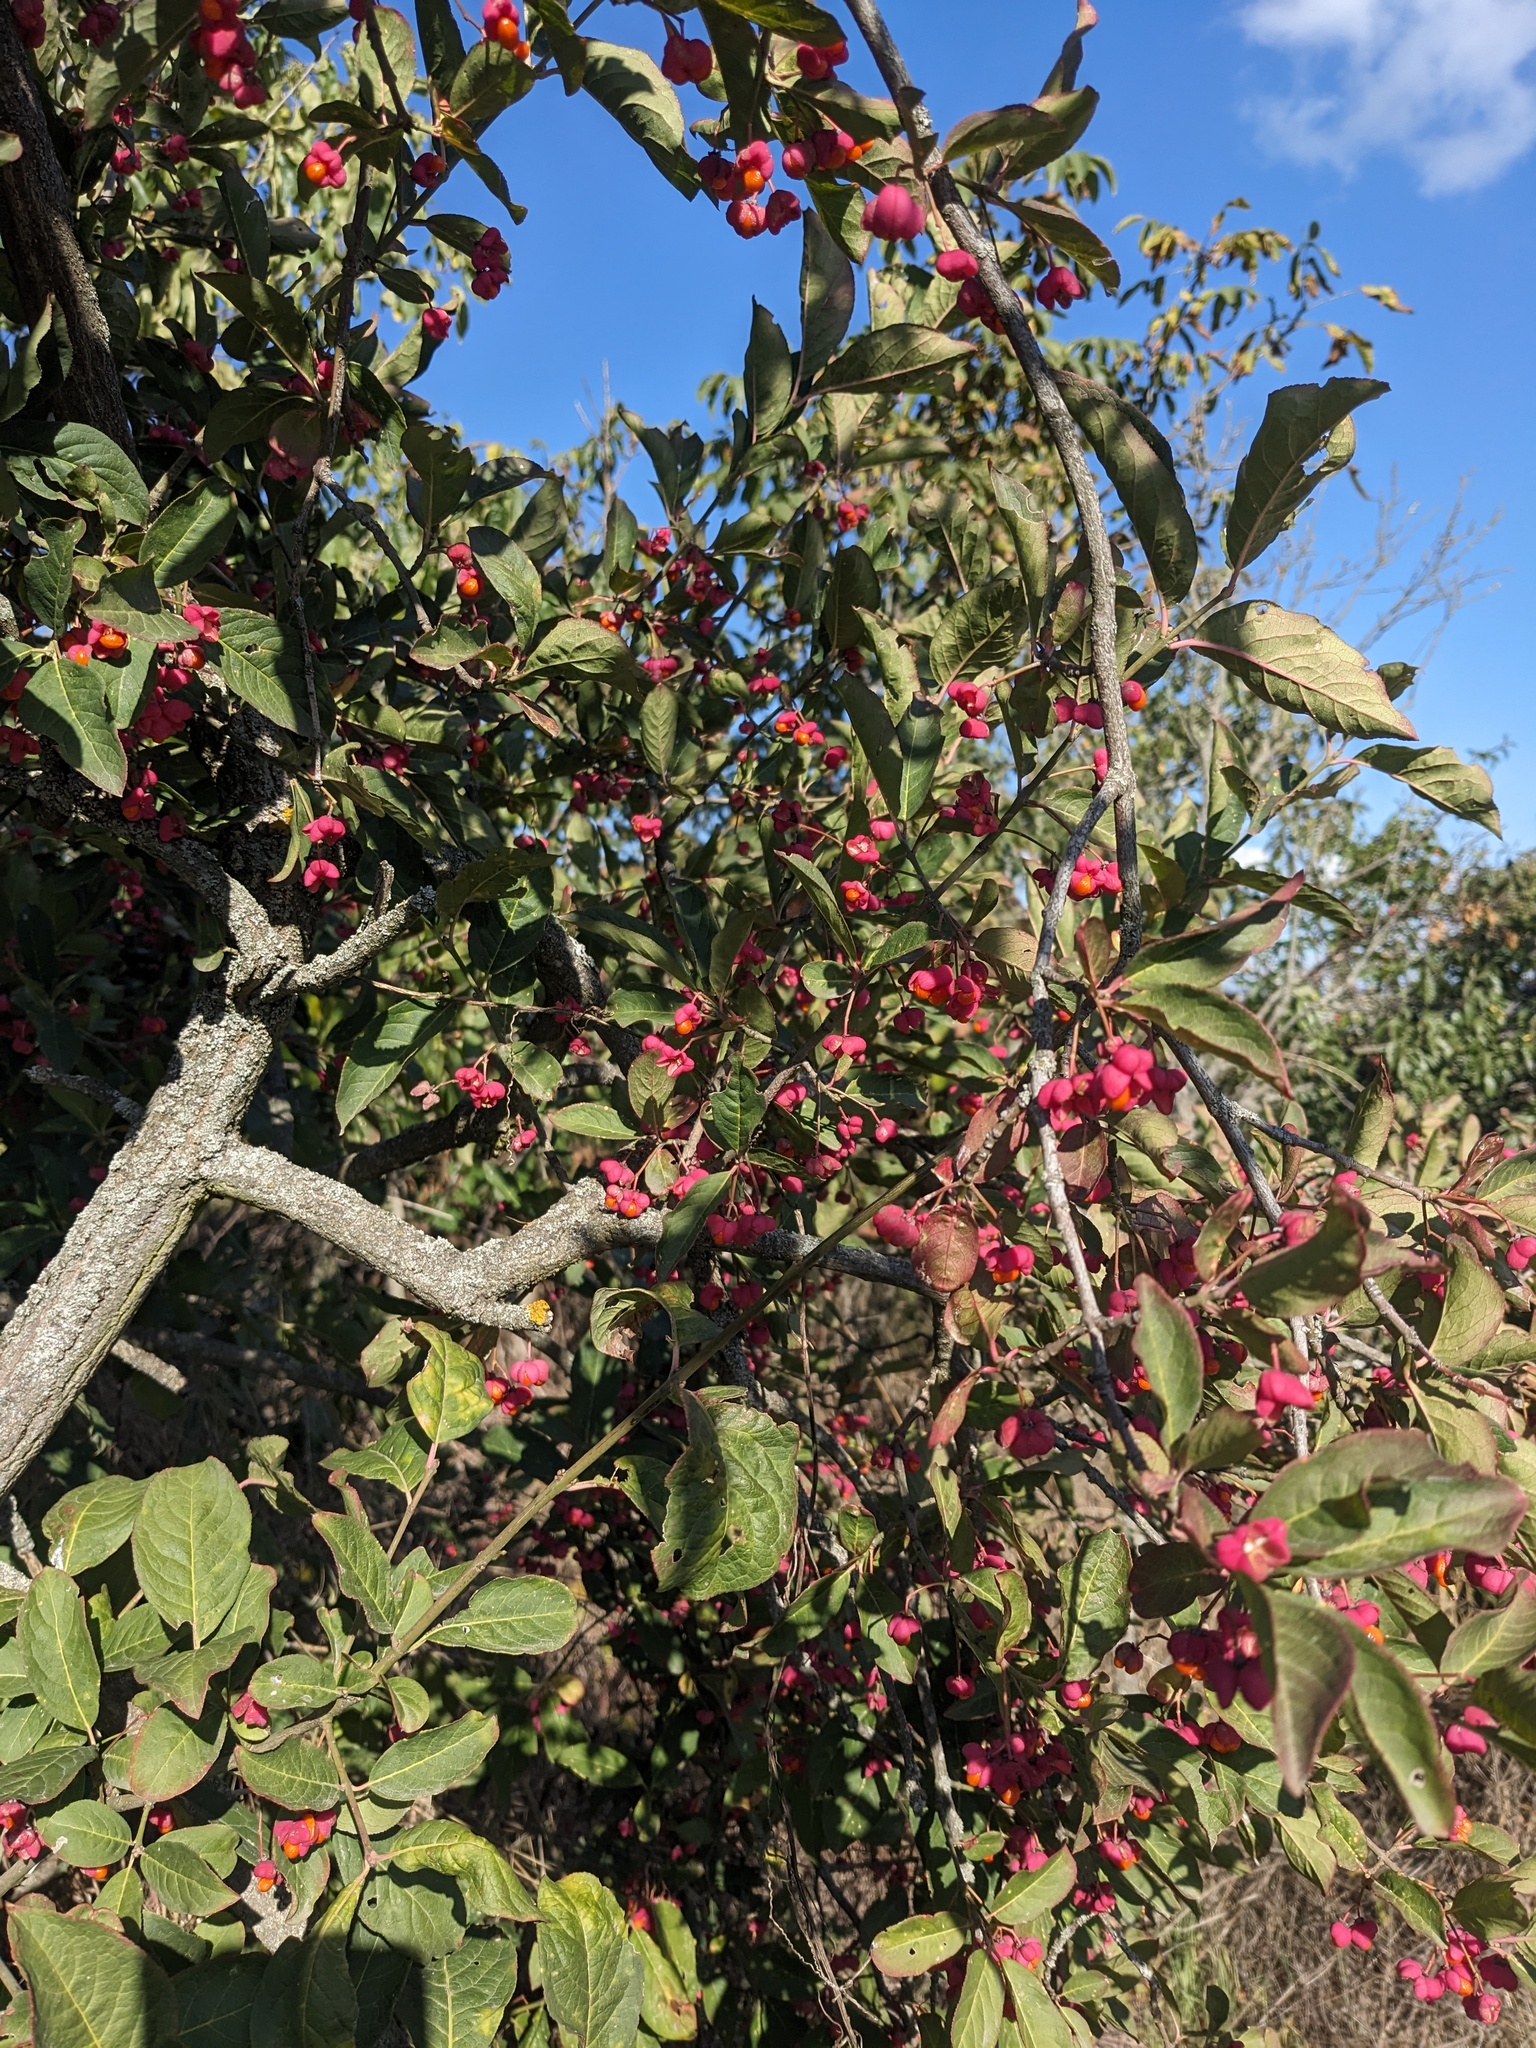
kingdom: Plantae
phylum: Tracheophyta
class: Magnoliopsida
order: Celastrales
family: Celastraceae
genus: Euonymus
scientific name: Euonymus europaeus
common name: Spindle
